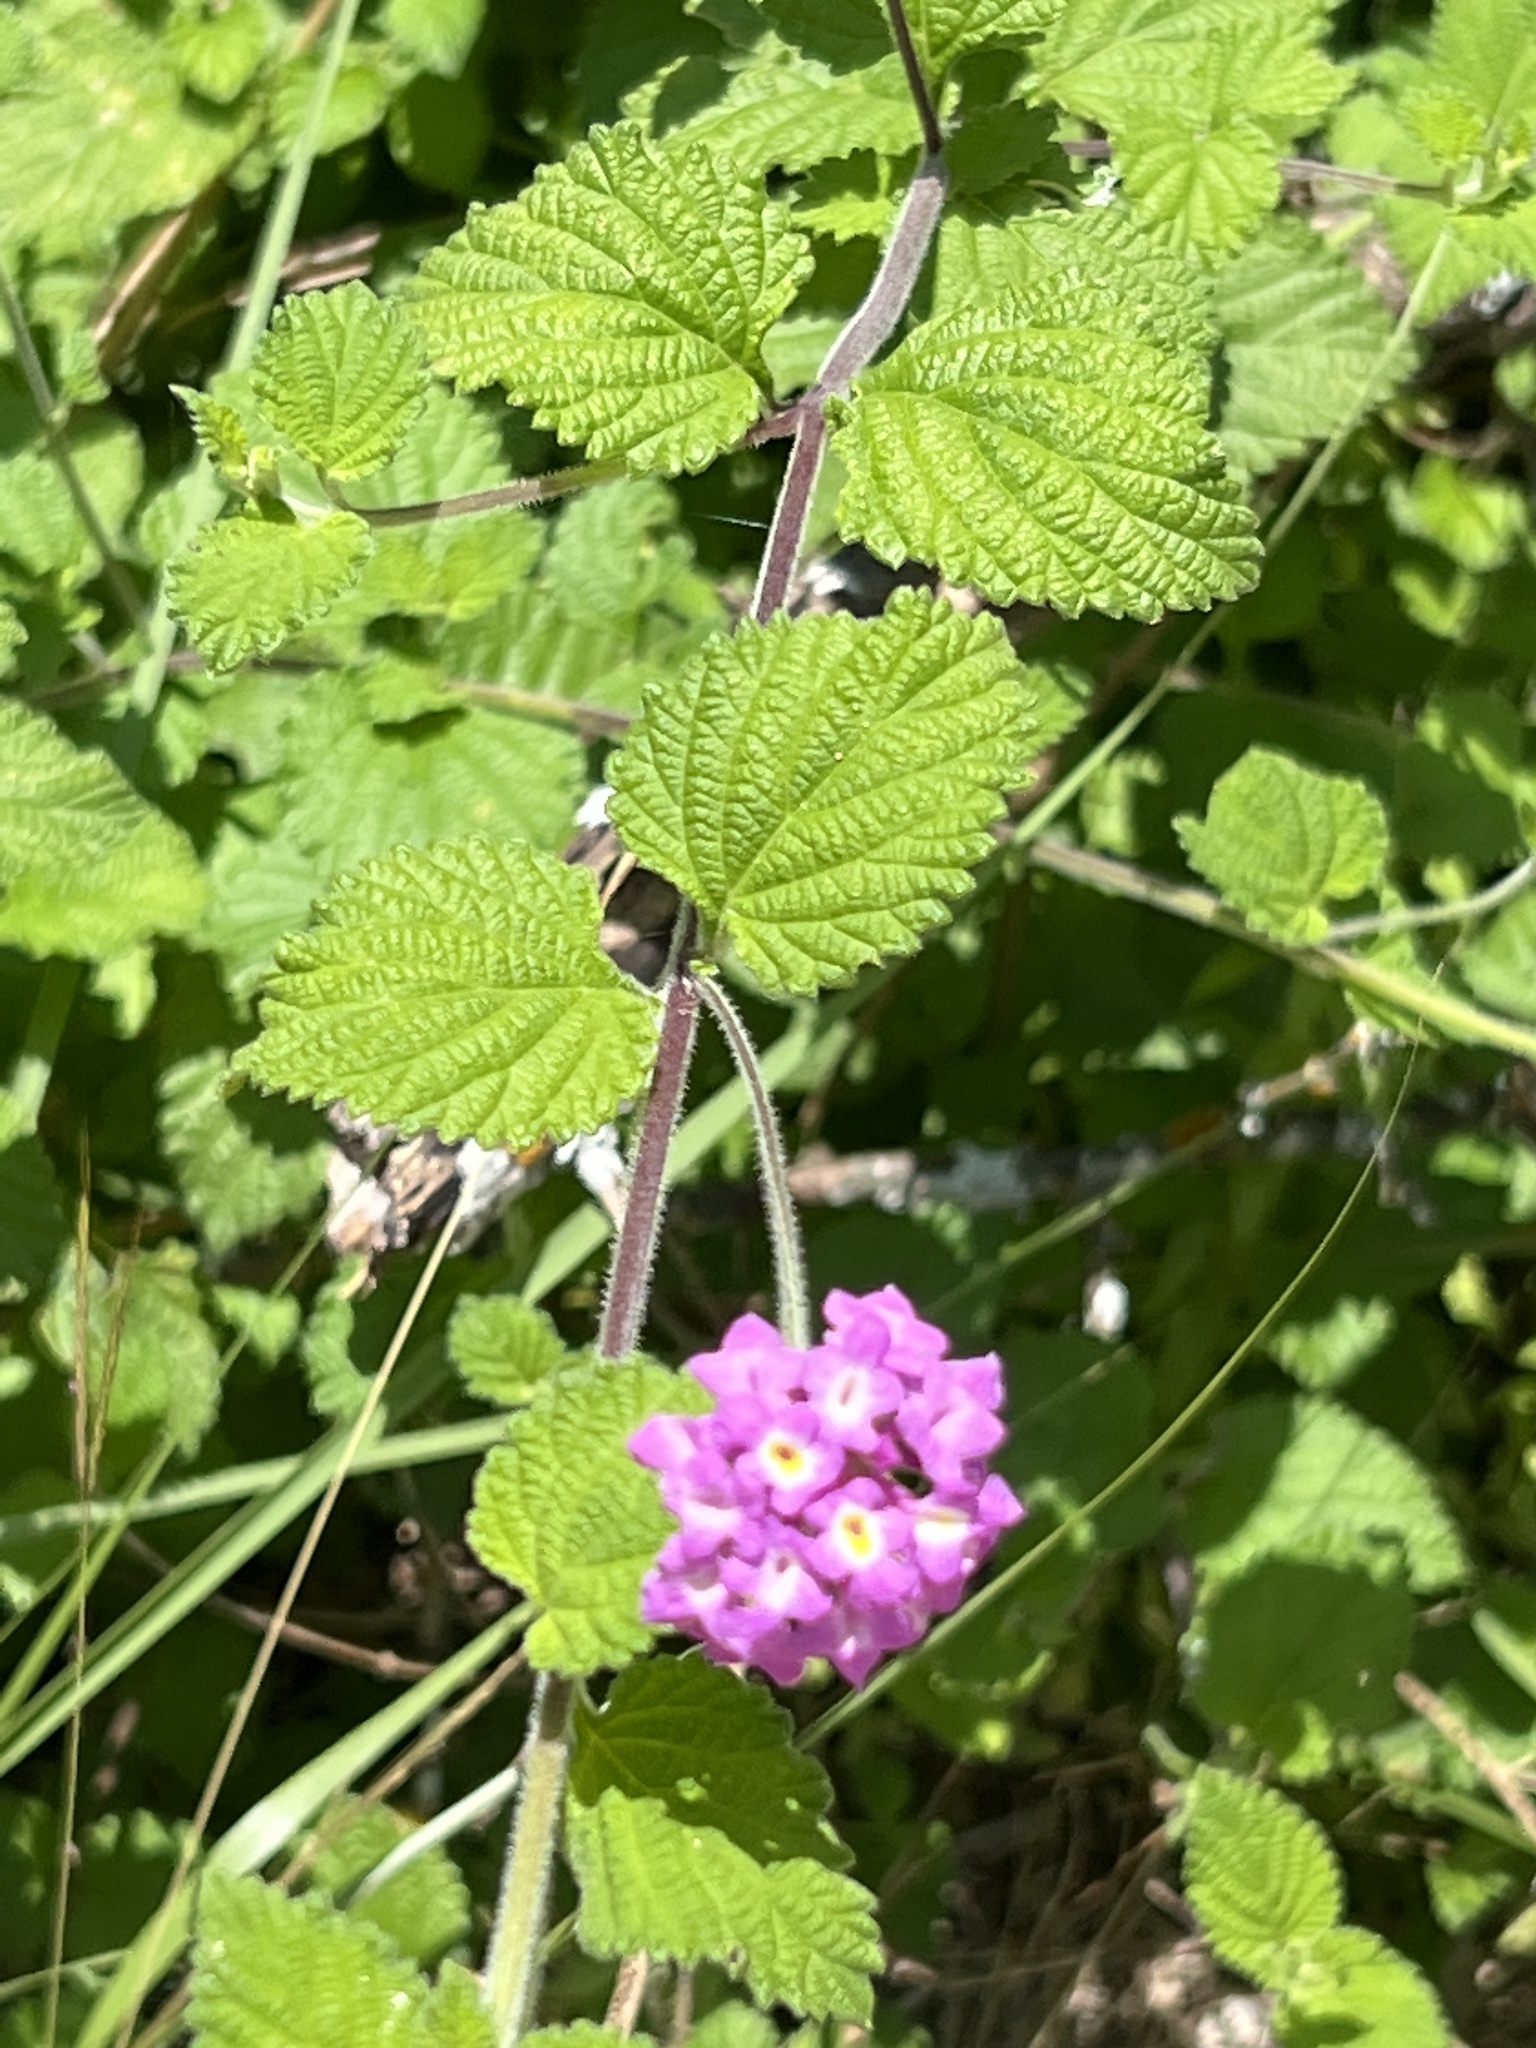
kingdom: Plantae
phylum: Tracheophyta
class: Magnoliopsida
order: Lamiales
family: Verbenaceae
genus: Lantana
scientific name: Lantana montevidensis
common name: Trailing shrubverbena
